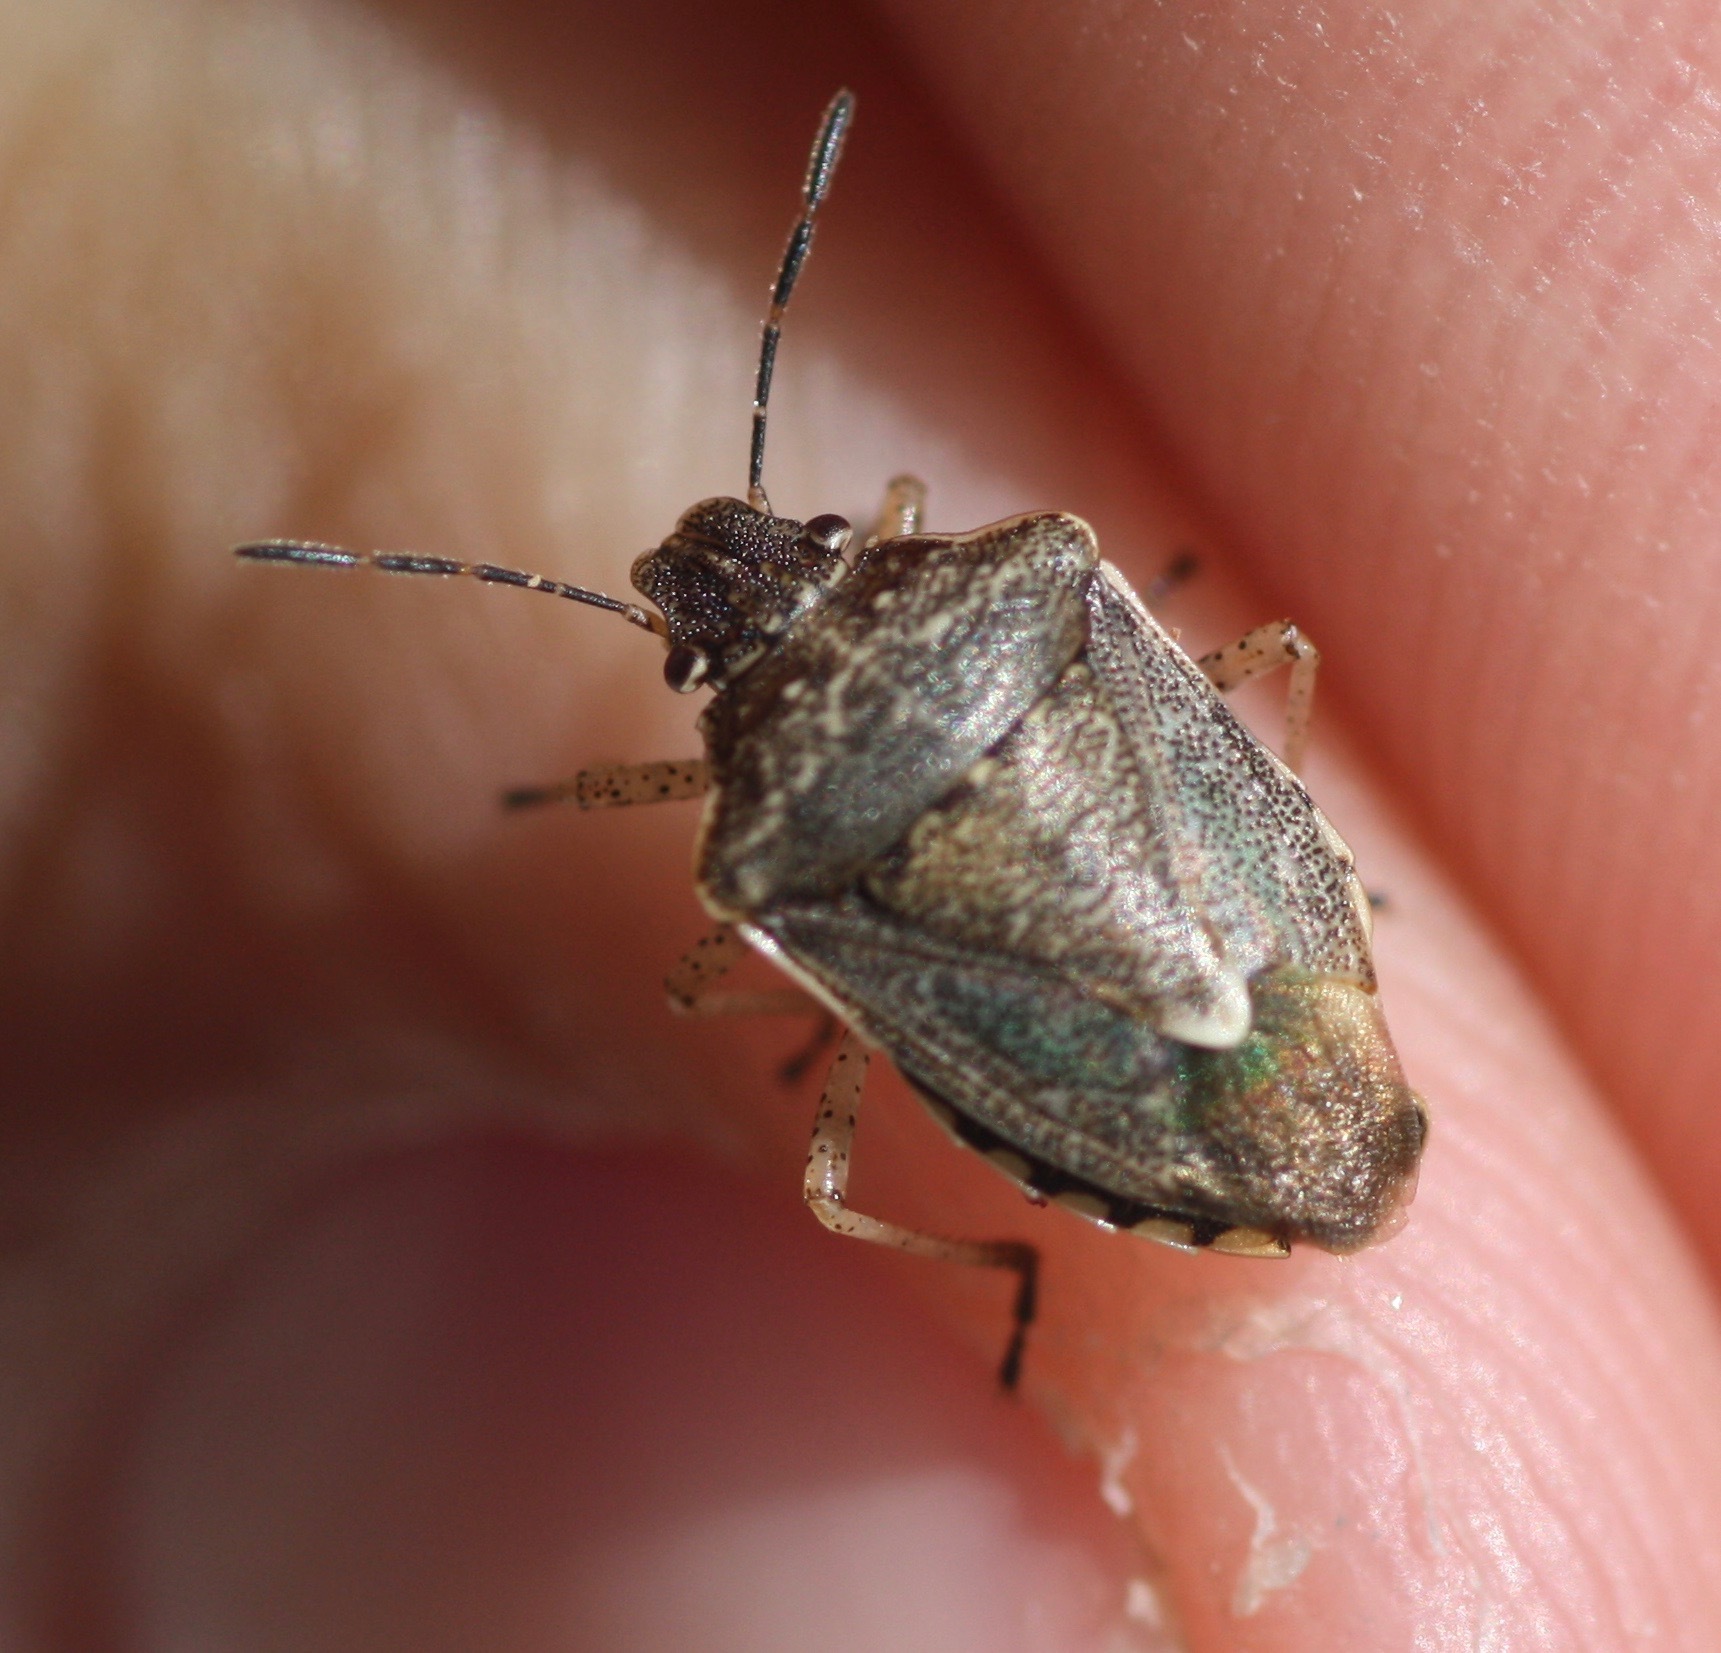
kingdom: Animalia
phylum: Arthropoda
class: Insecta
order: Hemiptera
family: Pentatomidae
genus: Moromorpha
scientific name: Moromorpha tetra
